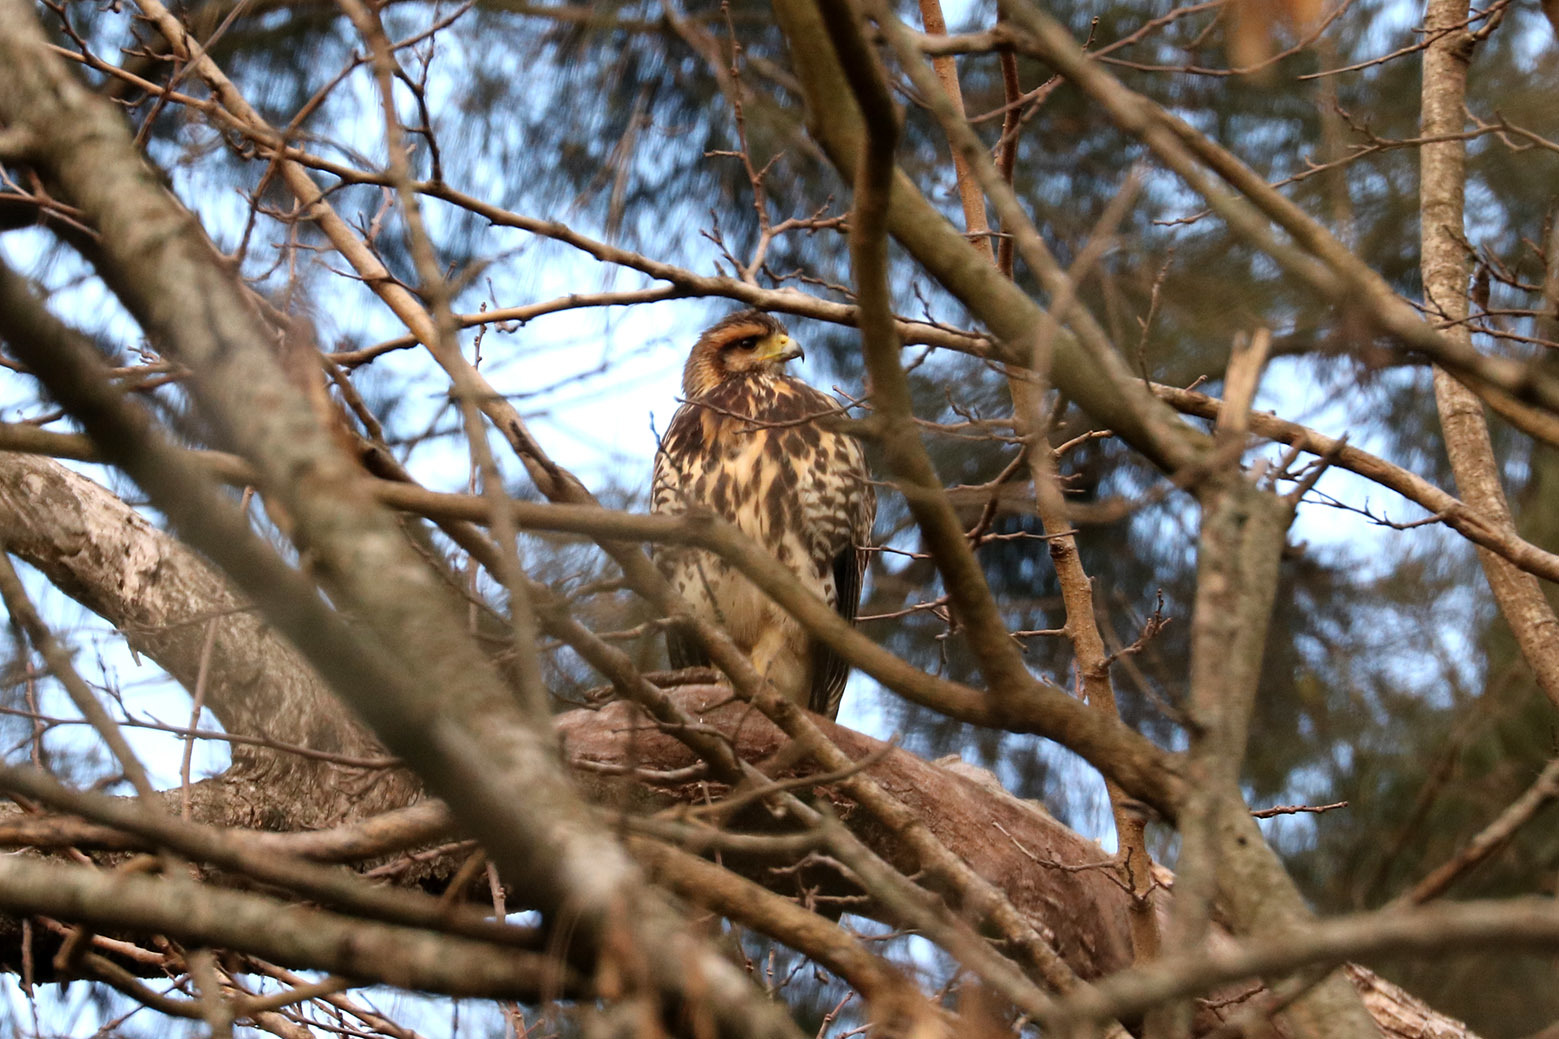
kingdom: Animalia
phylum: Chordata
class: Aves
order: Accipitriformes
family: Accipitridae
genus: Parabuteo
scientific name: Parabuteo unicinctus
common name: Harris's hawk
